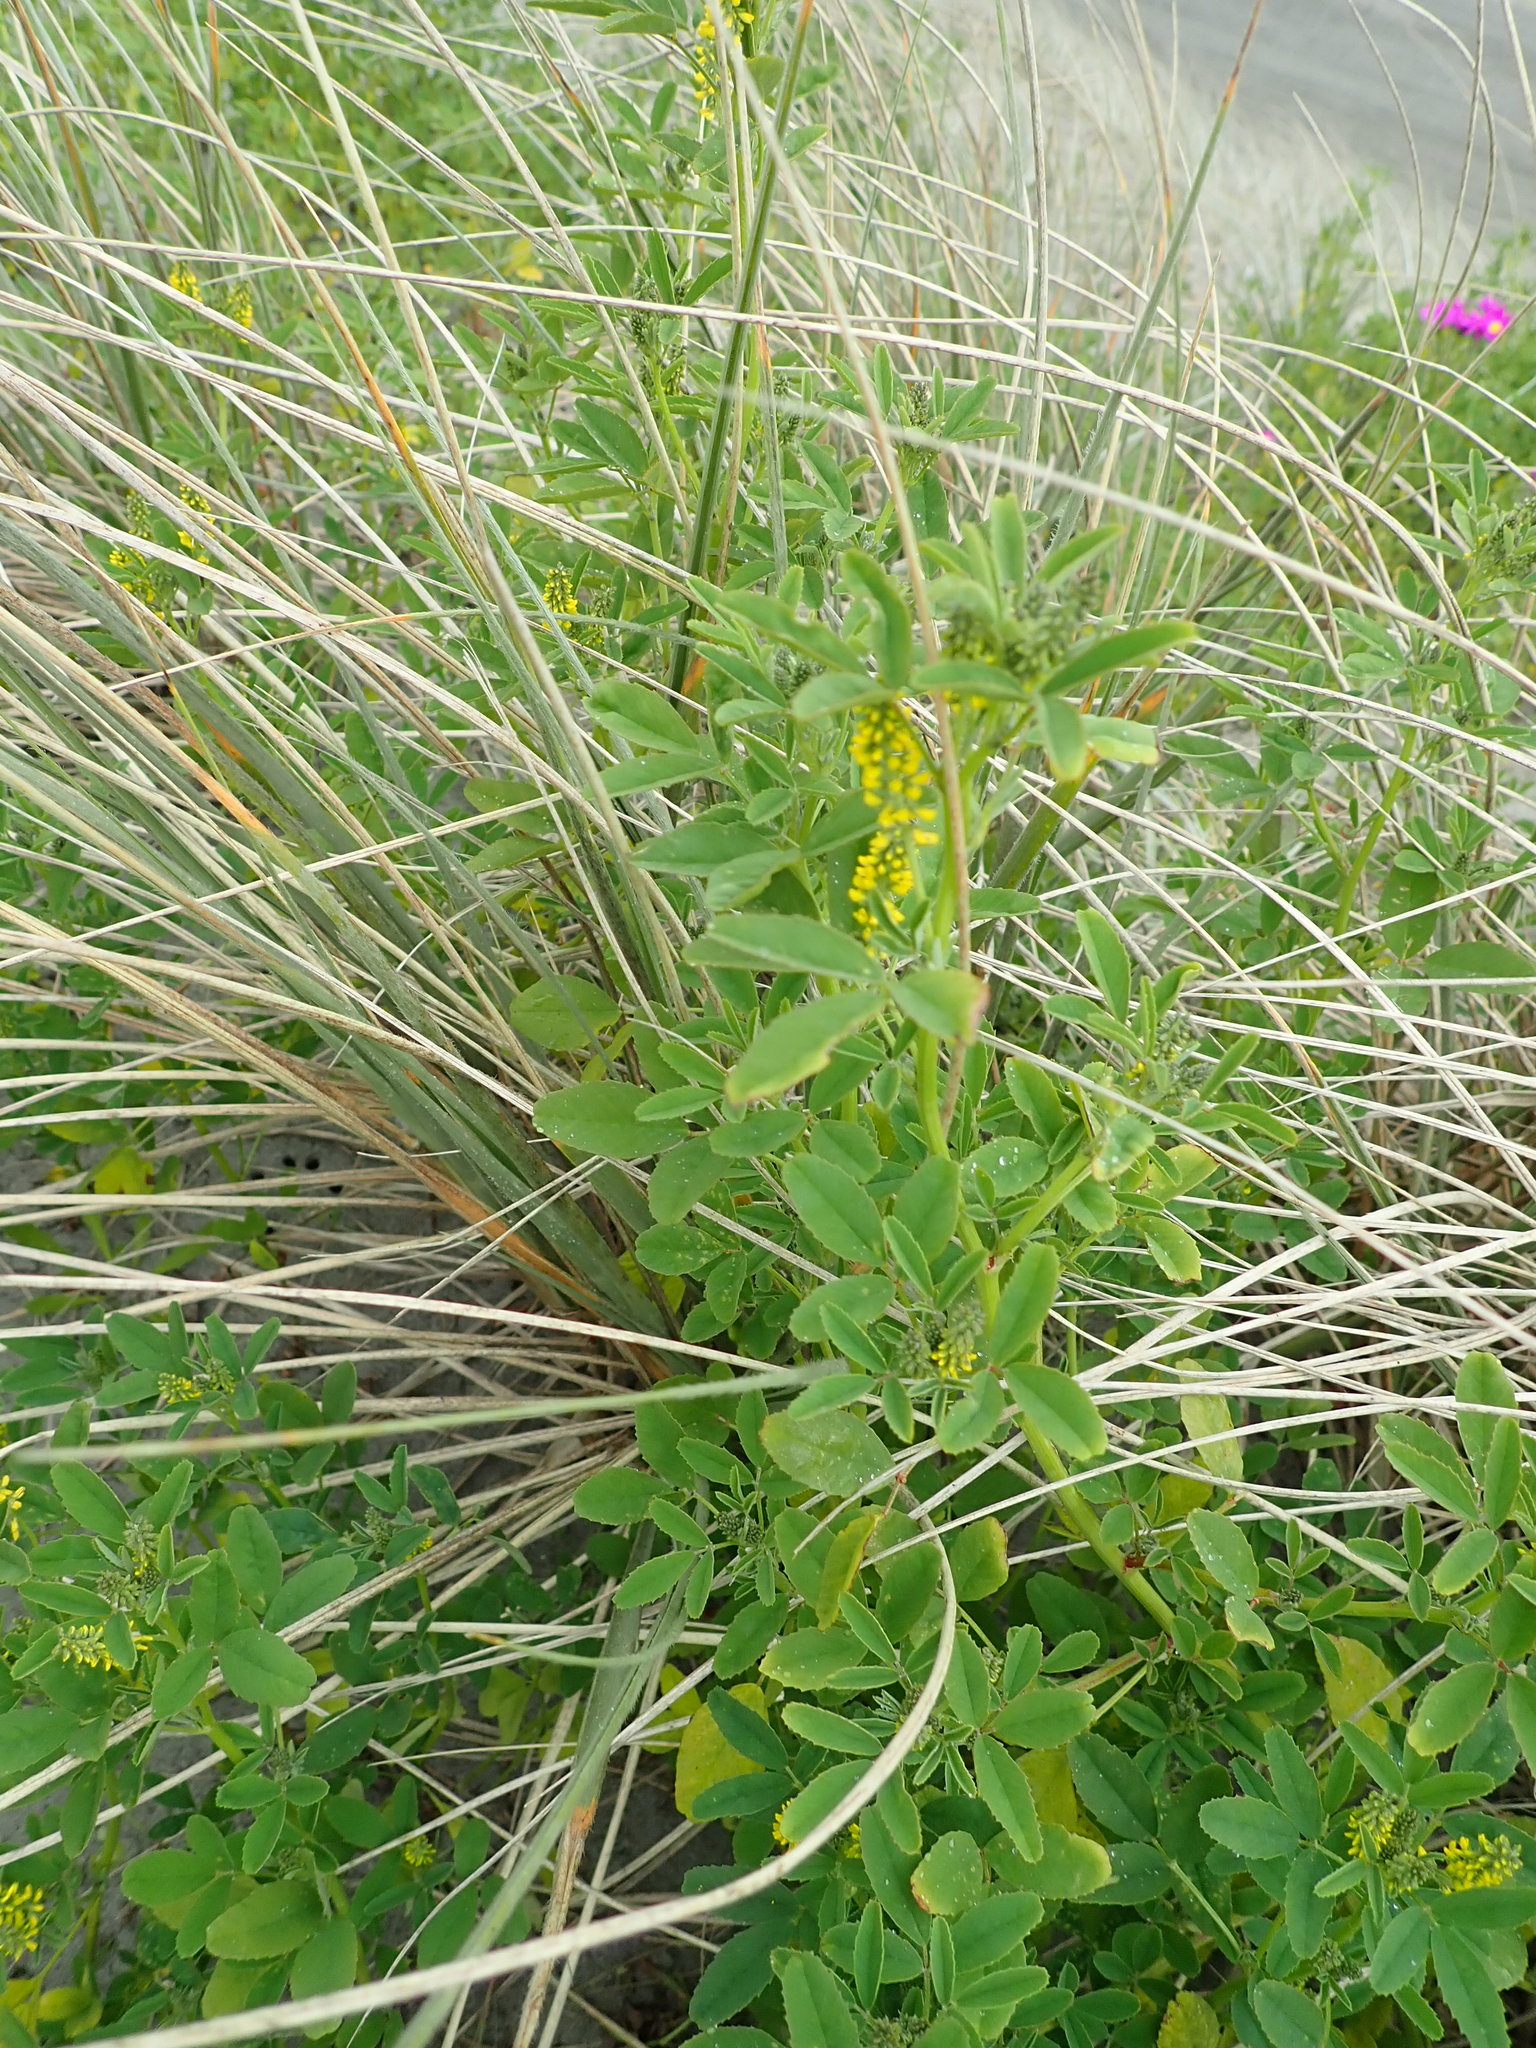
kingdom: Plantae
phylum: Tracheophyta
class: Magnoliopsida
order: Fabales
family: Fabaceae
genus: Melilotus
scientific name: Melilotus indicus
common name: Small melilot
